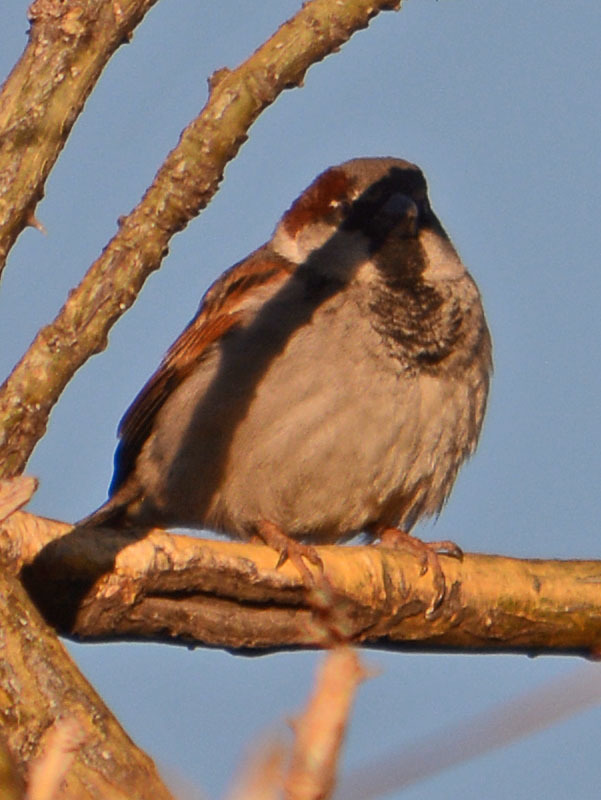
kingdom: Animalia
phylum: Chordata
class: Aves
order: Passeriformes
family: Passeridae
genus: Passer
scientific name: Passer domesticus
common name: House sparrow
